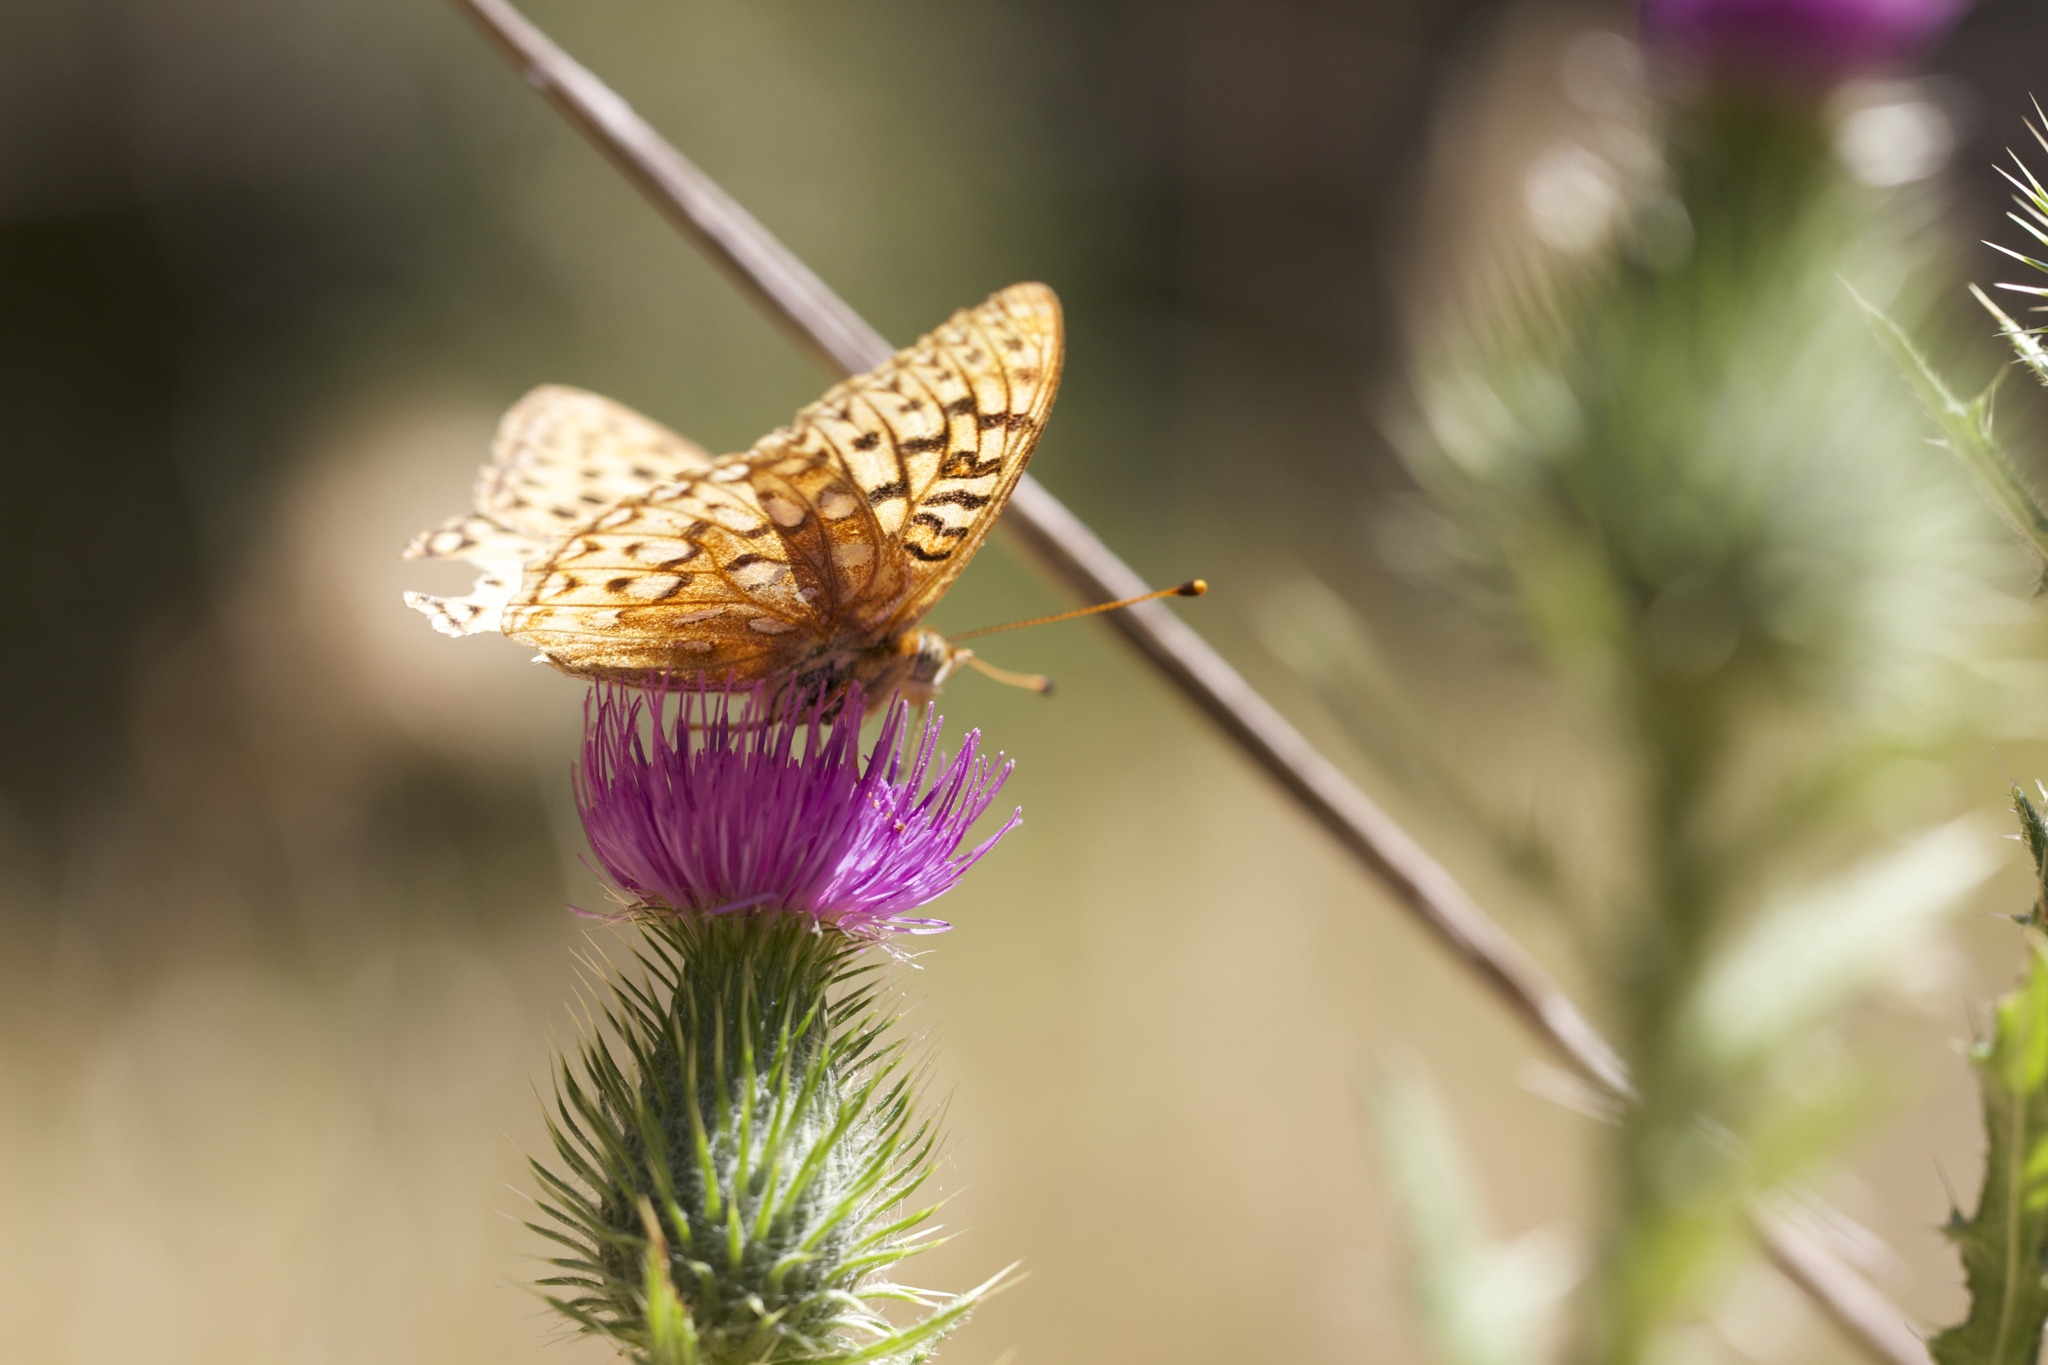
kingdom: Animalia
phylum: Arthropoda
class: Insecta
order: Lepidoptera
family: Nymphalidae
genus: Argynnis
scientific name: Argynnis coronis
